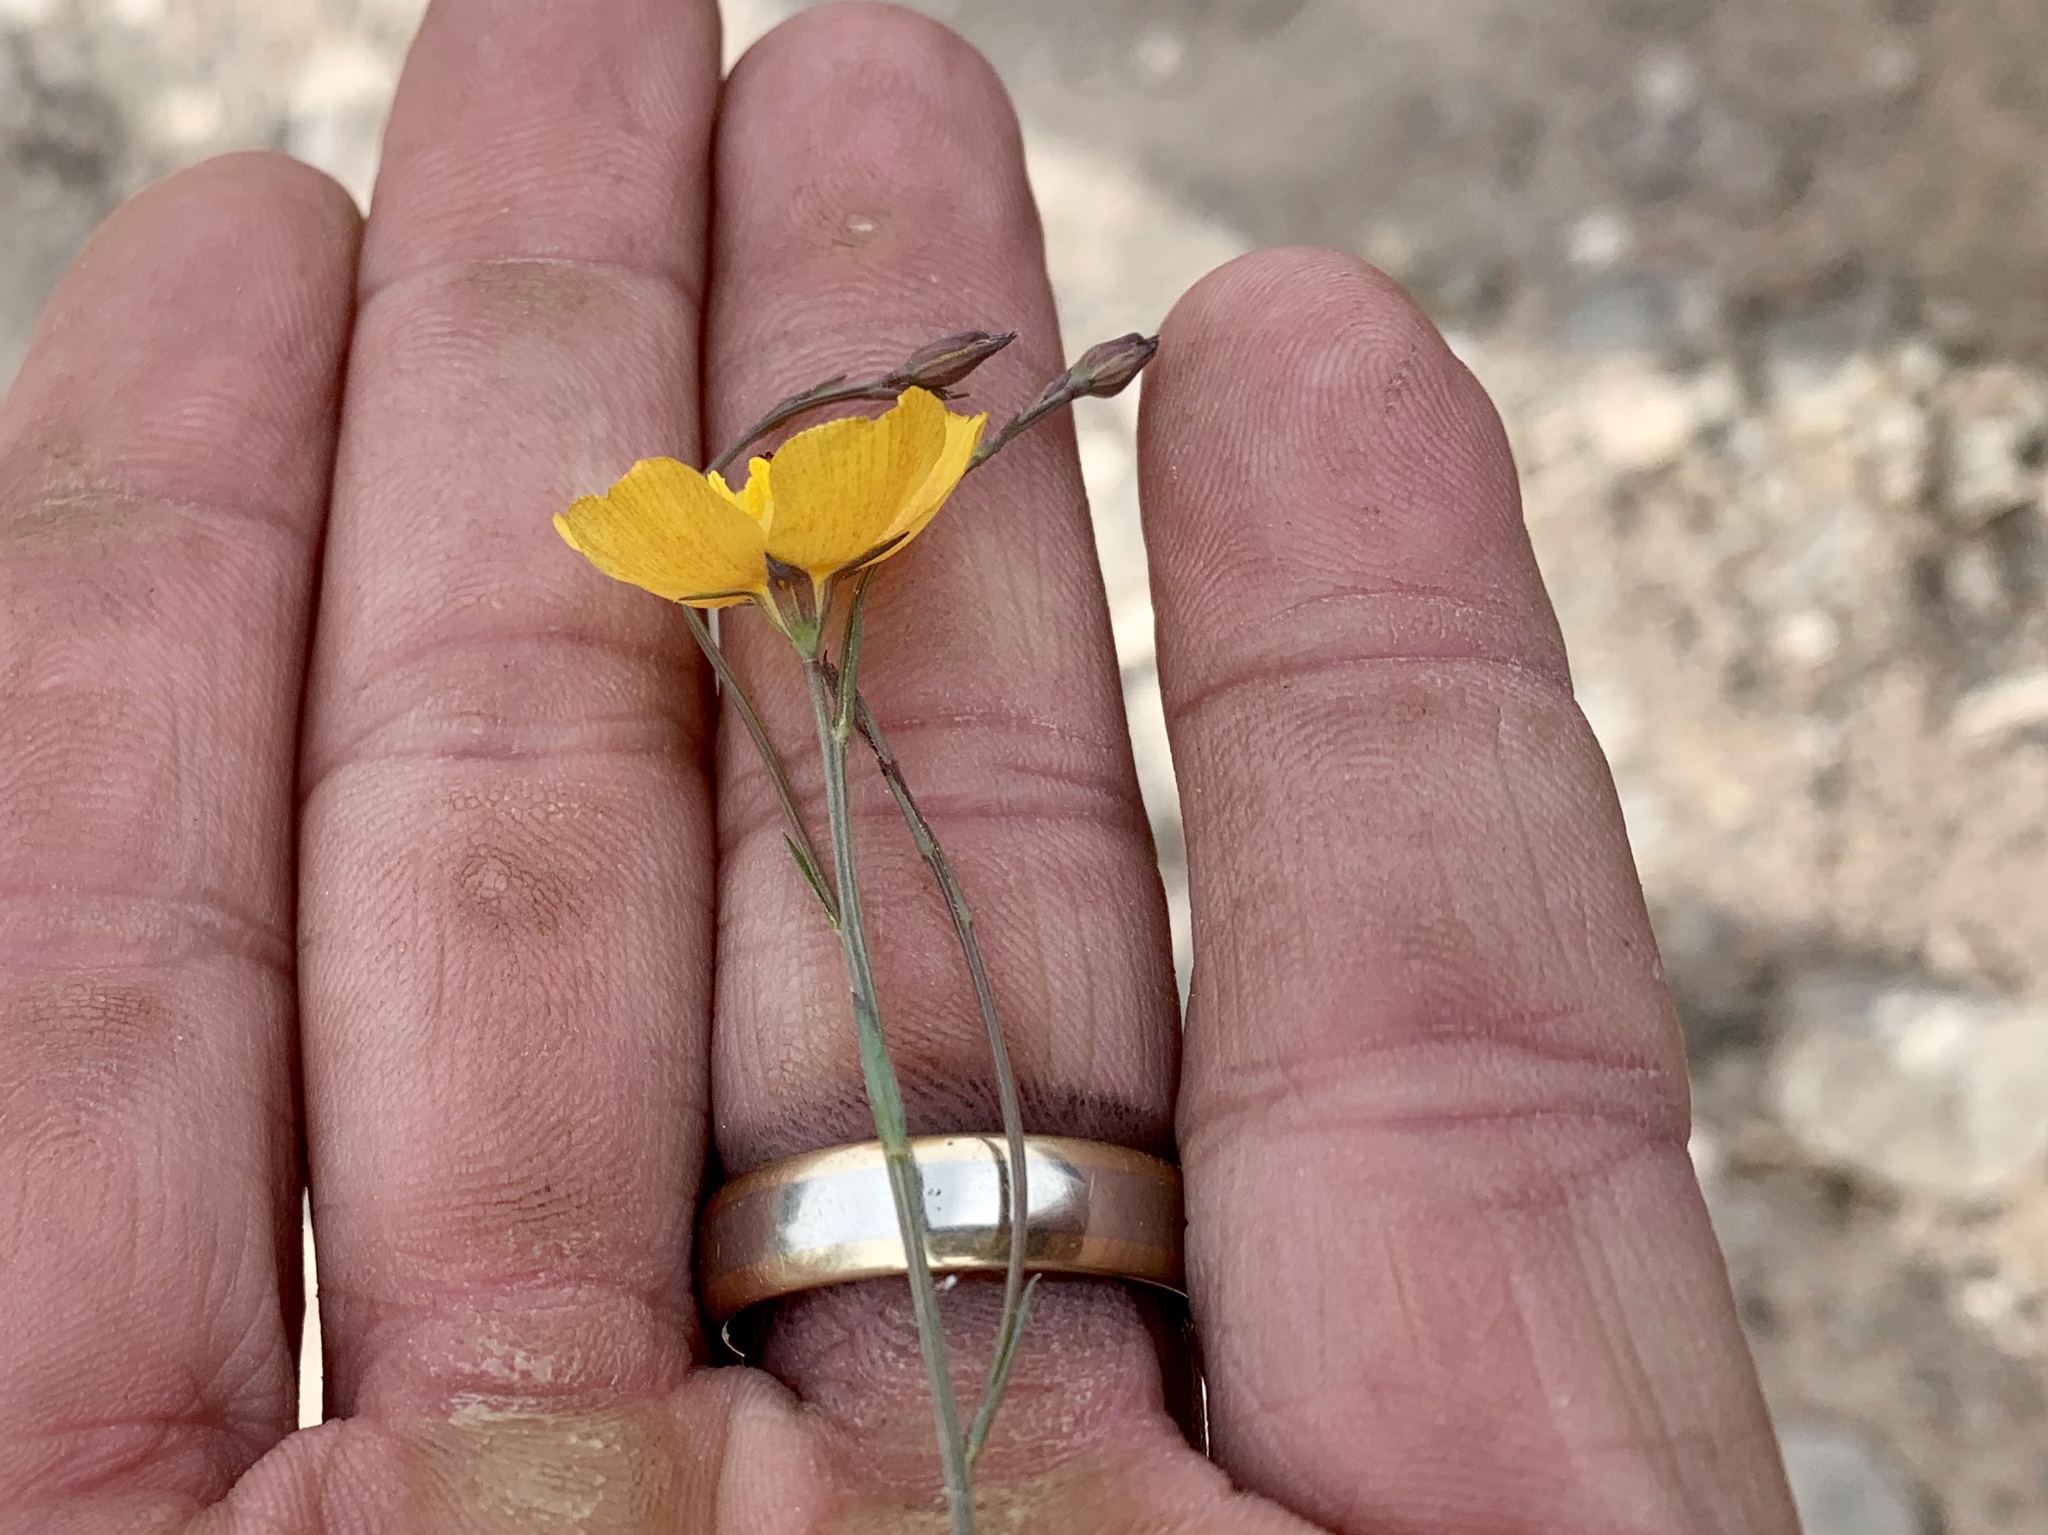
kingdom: Plantae
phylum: Tracheophyta
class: Magnoliopsida
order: Malpighiales
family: Linaceae
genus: Linum
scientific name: Linum berlandieri
